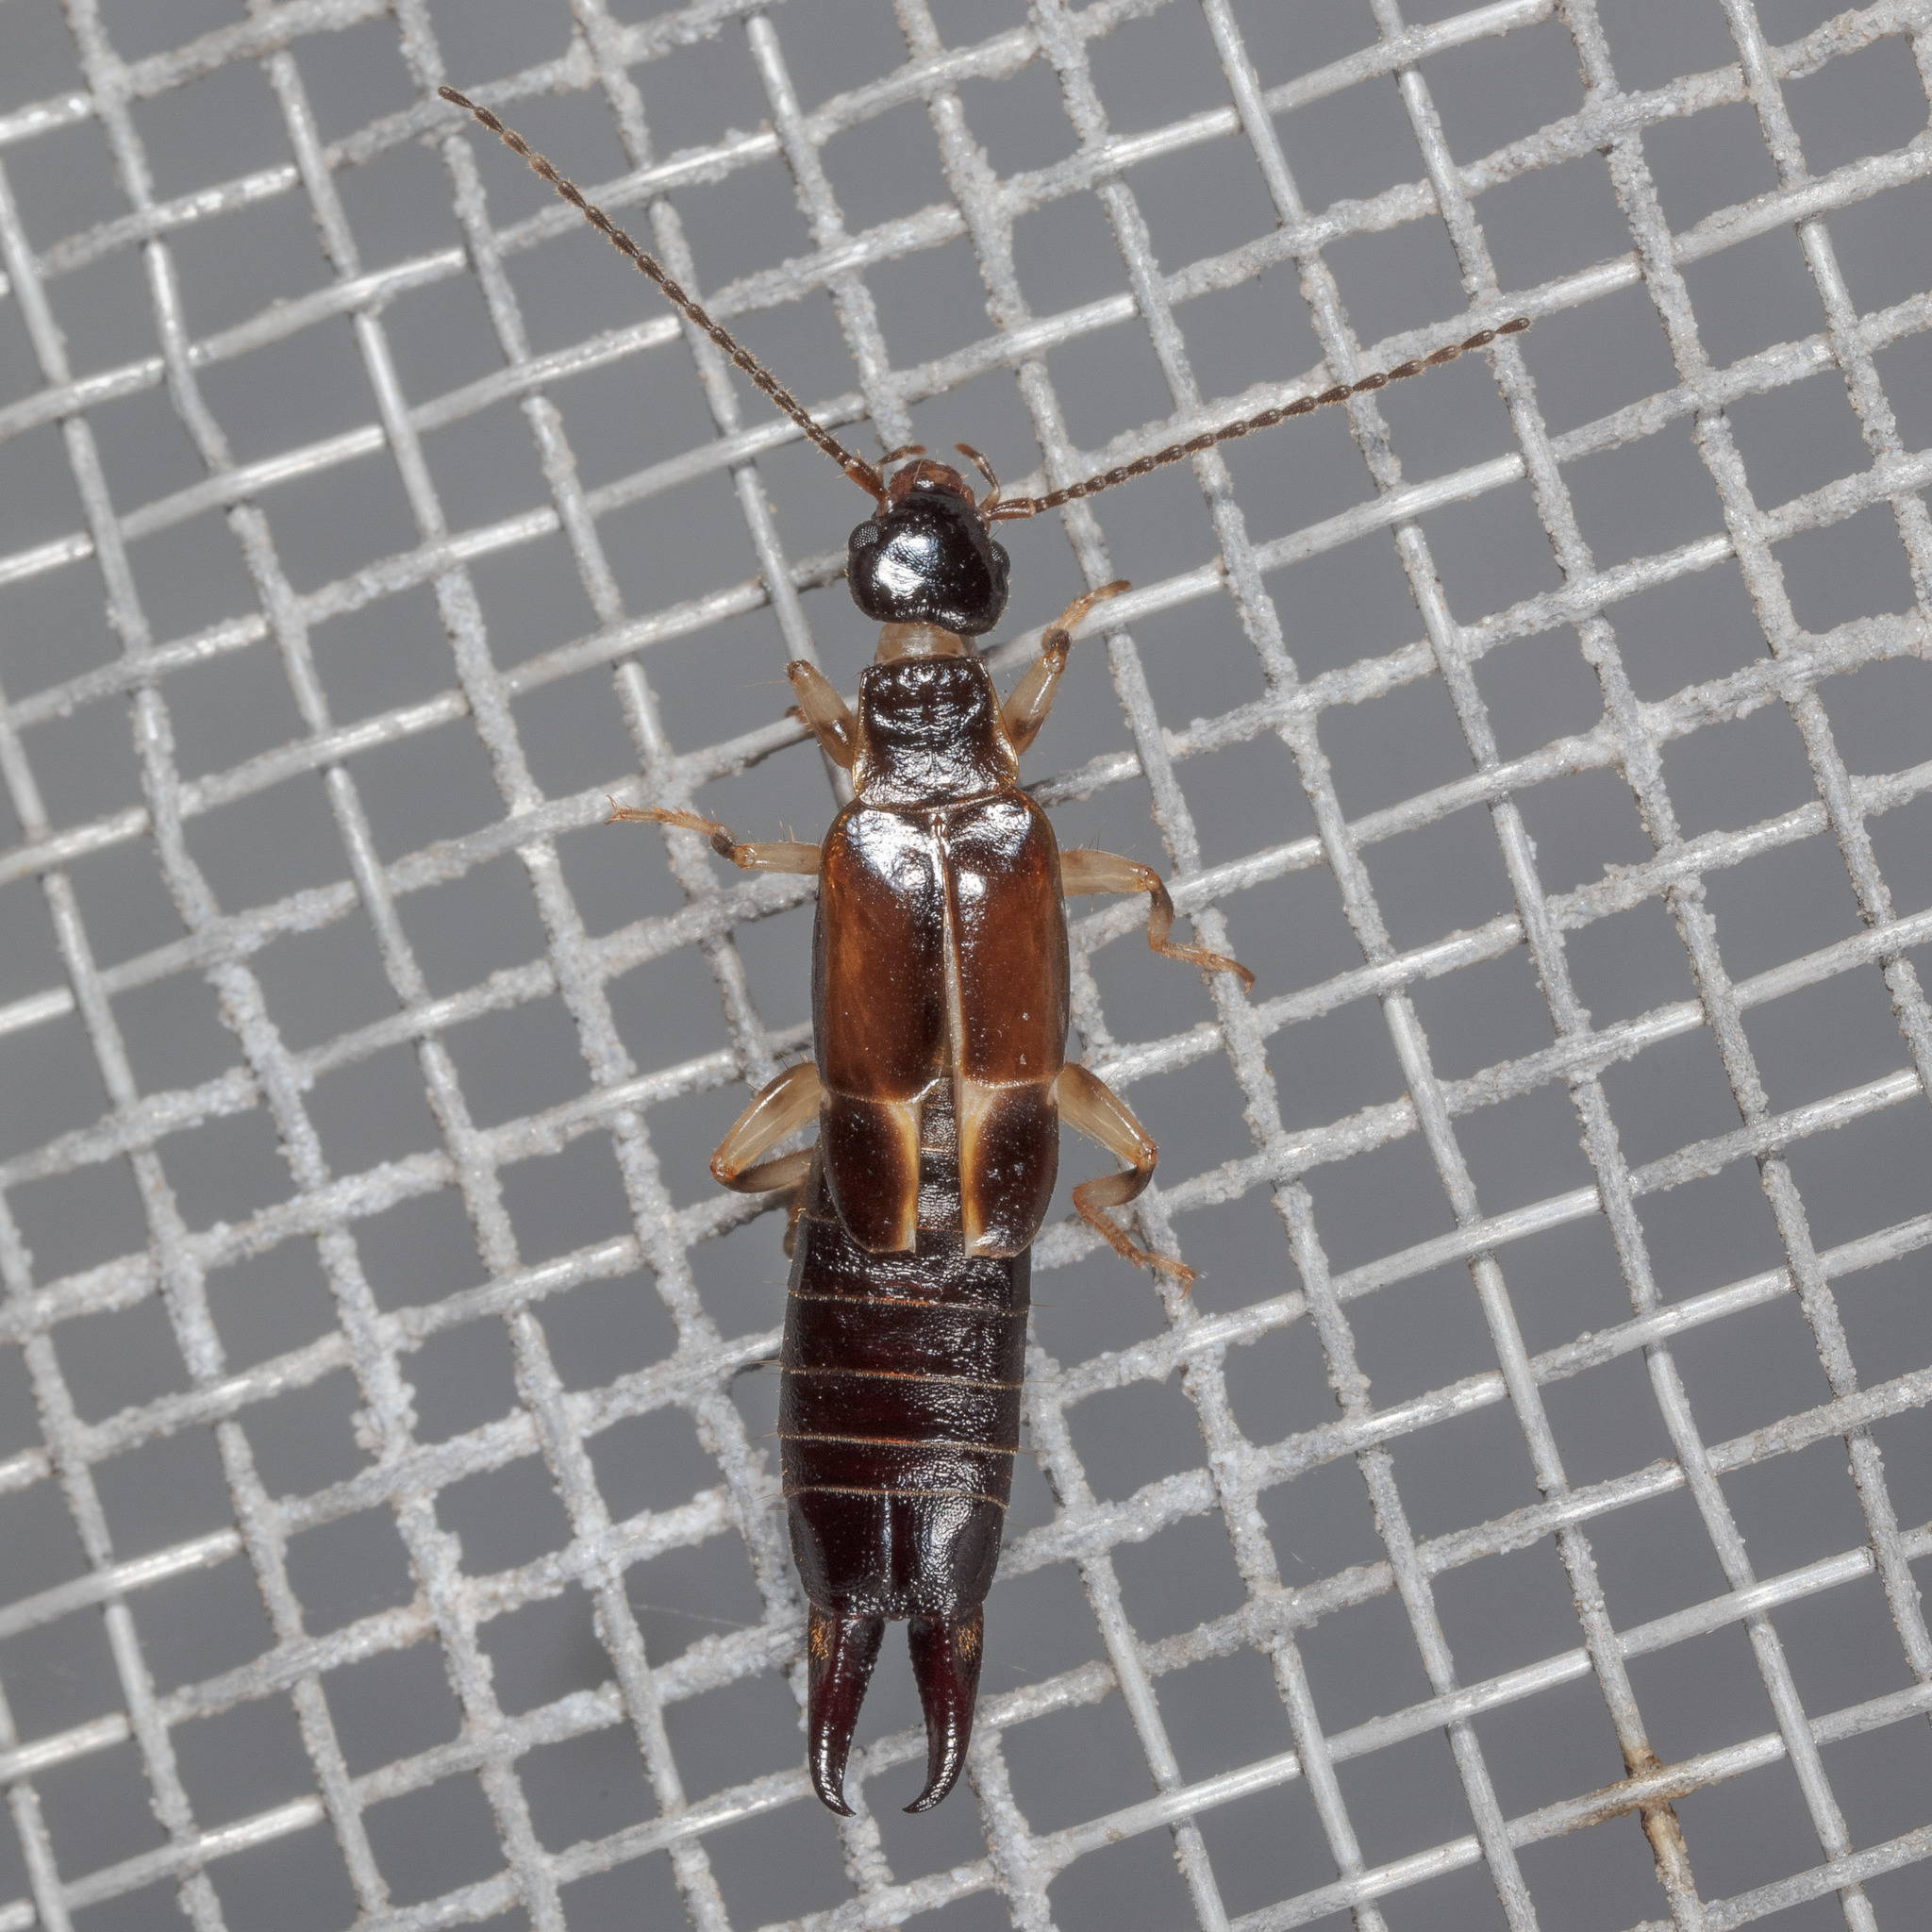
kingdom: Animalia
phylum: Arthropoda
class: Insecta
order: Dermaptera
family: Anisolabididae
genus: Euborellia
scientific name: Euborellia cincticollis
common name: African earwig
